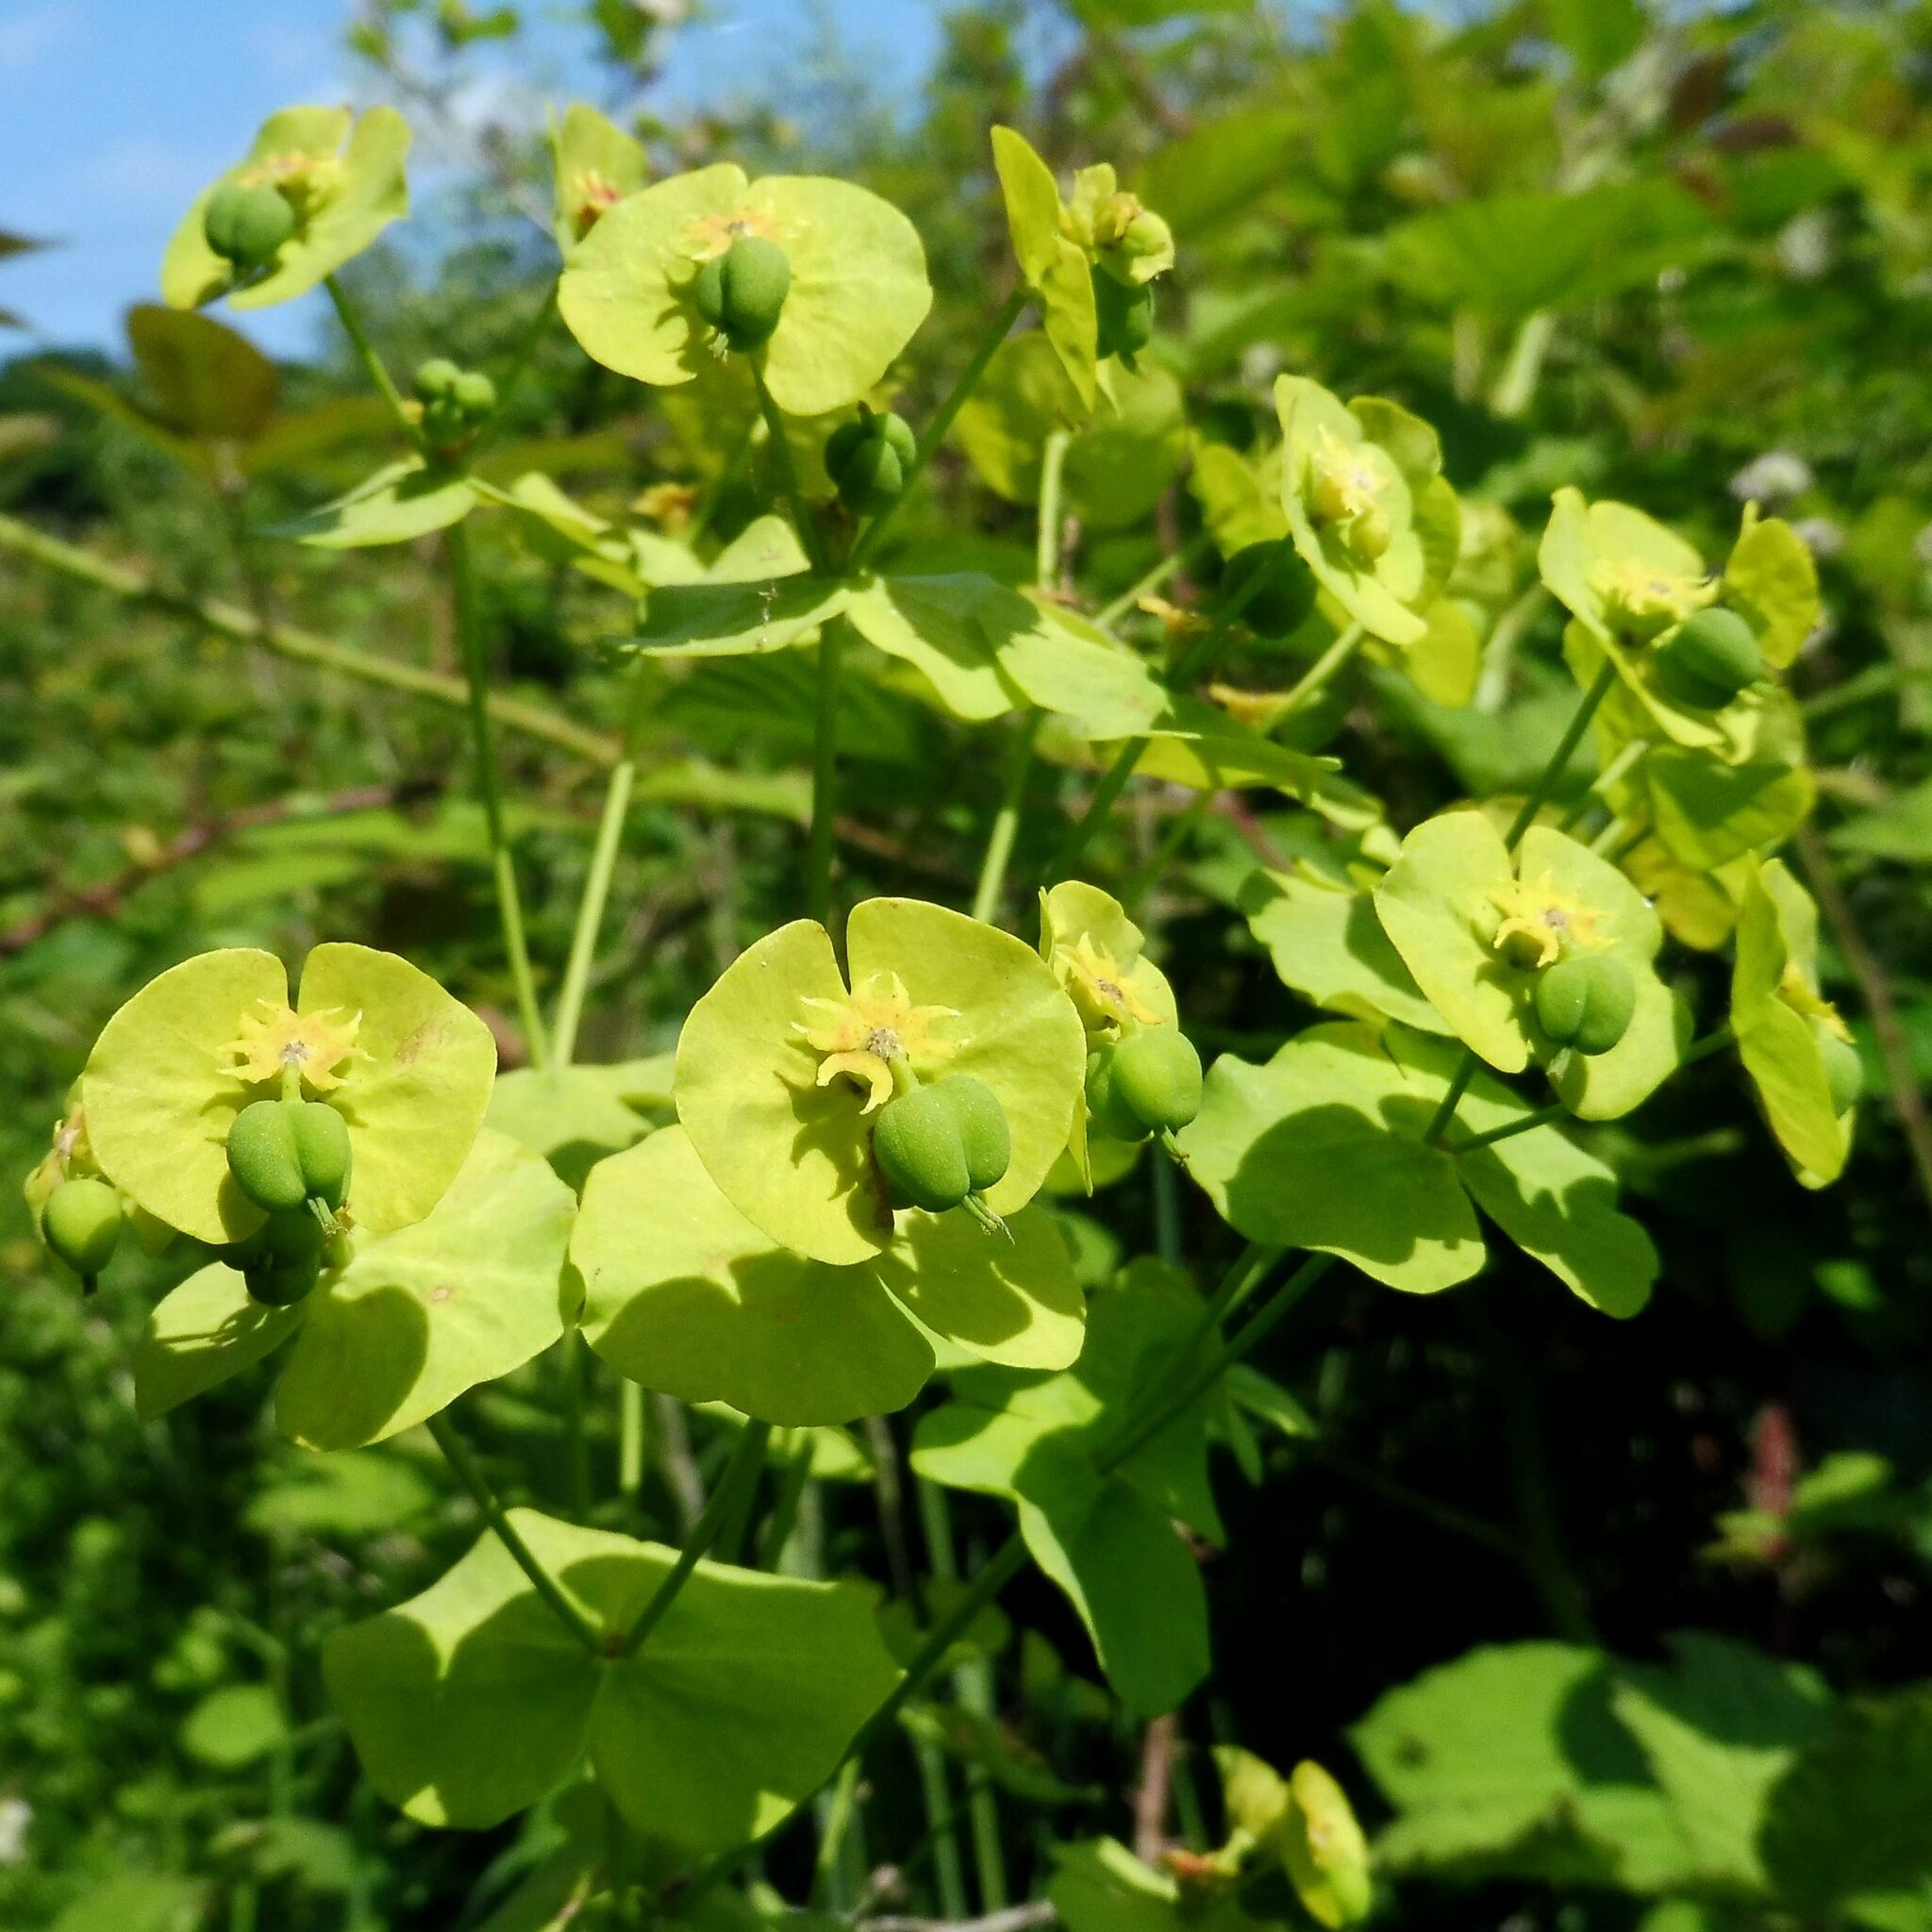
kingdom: Plantae
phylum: Tracheophyta
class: Magnoliopsida
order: Malpighiales
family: Euphorbiaceae
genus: Euphorbia
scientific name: Euphorbia amygdaloides
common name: Wood spurge
